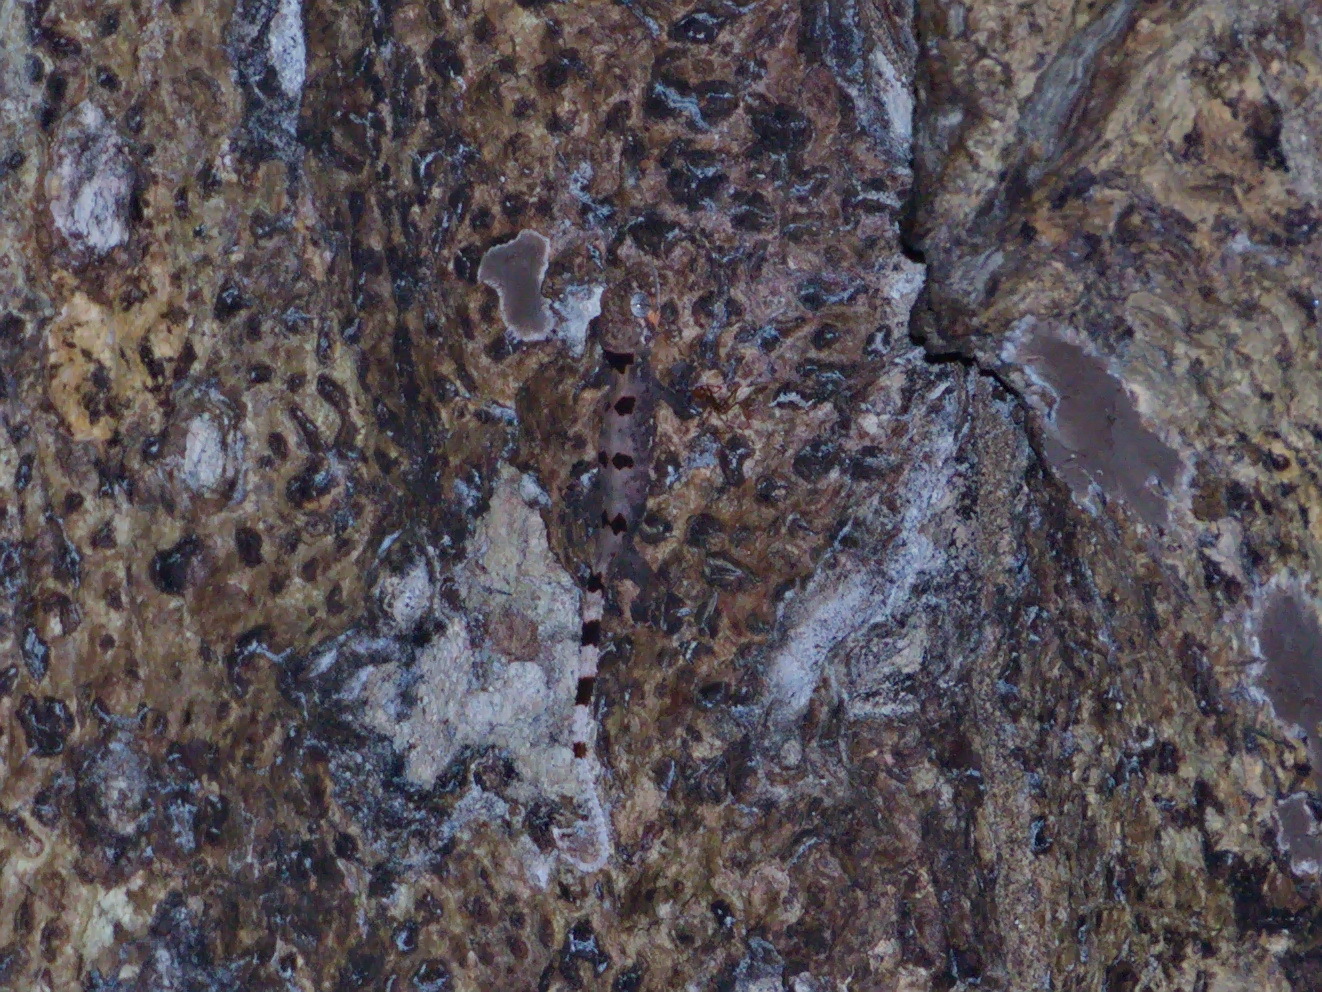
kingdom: Animalia
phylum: Chordata
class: Squamata
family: Gekkonidae
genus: Cyrtodactylus
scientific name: Cyrtodactylus elok
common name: Beautiful bent-toed gecko
